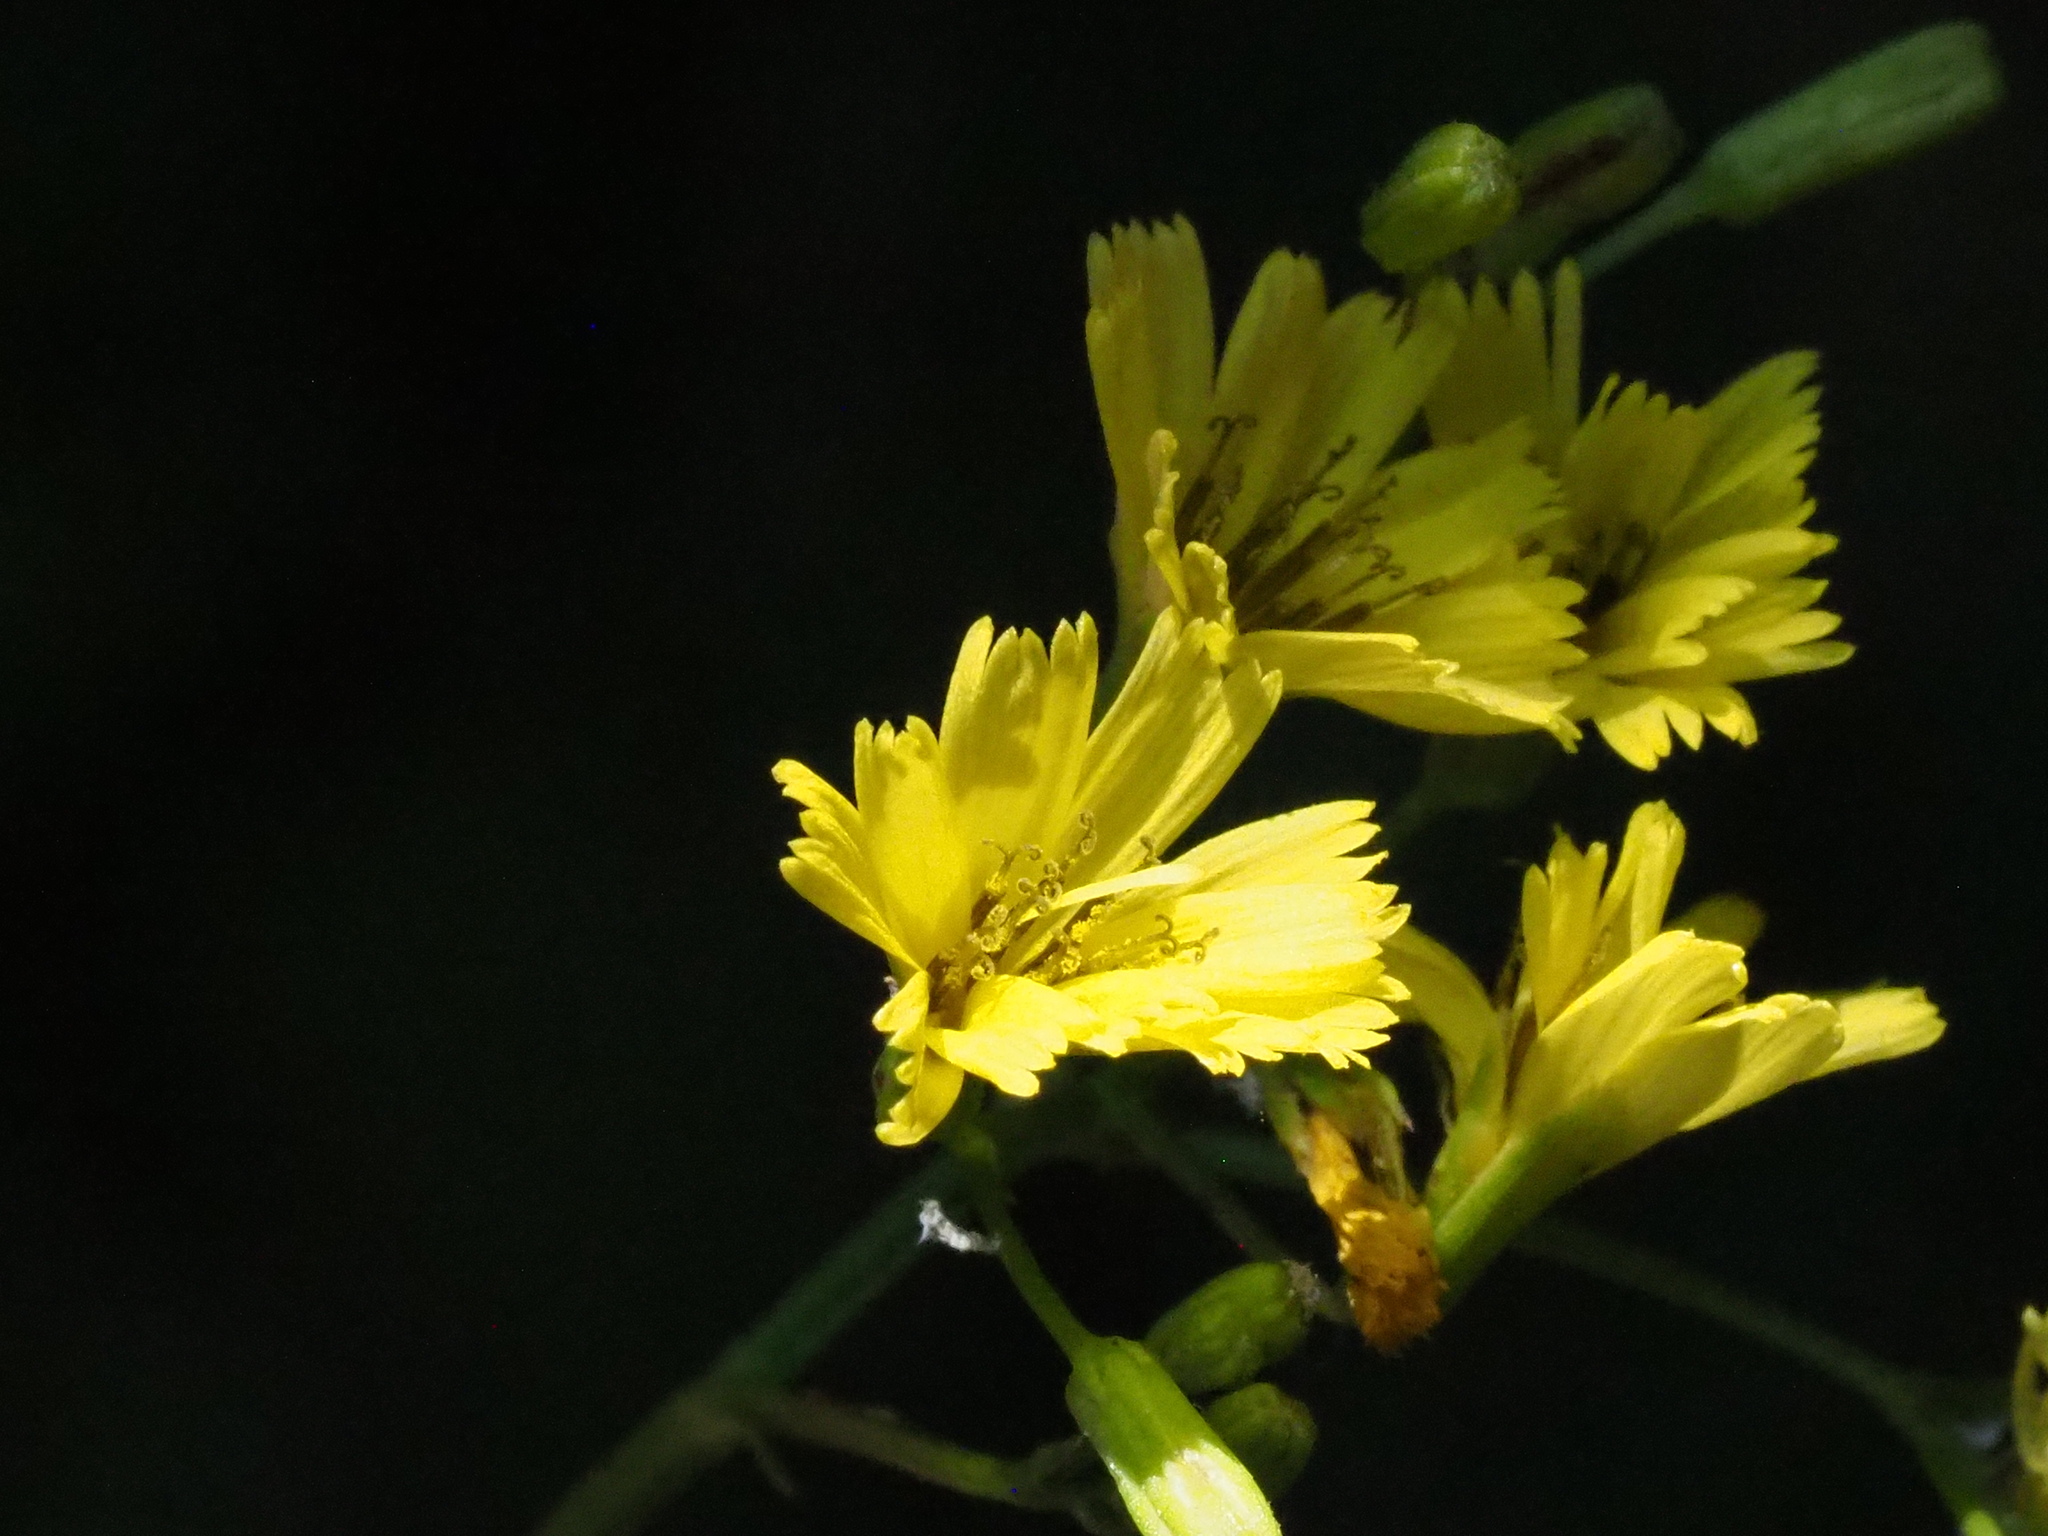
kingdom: Plantae
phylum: Tracheophyta
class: Magnoliopsida
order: Asterales
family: Asteraceae
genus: Ixeridium
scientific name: Ixeridium laevigatum
